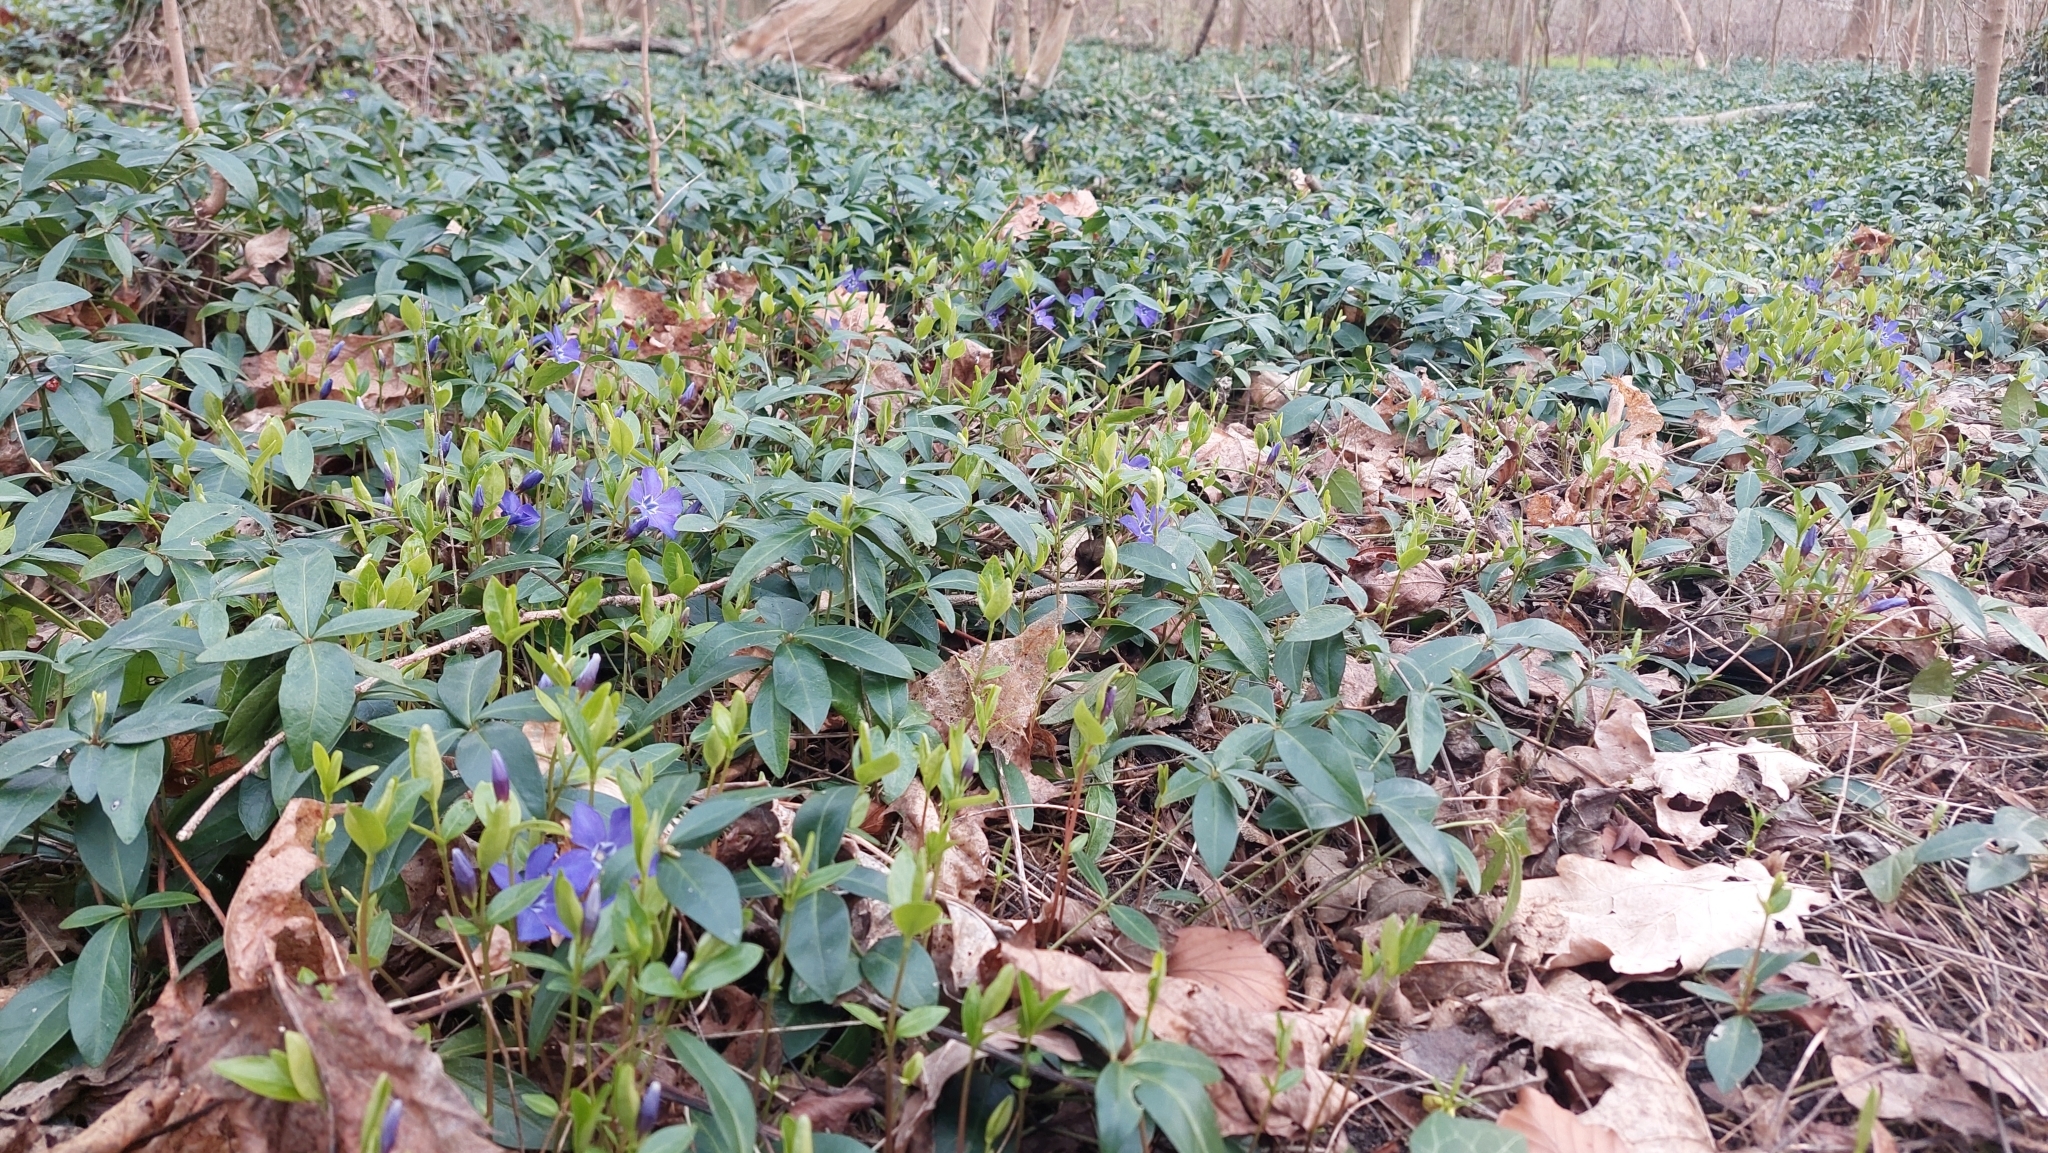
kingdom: Plantae
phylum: Tracheophyta
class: Magnoliopsida
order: Gentianales
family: Apocynaceae
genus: Vinca
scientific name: Vinca minor
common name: Lesser periwinkle
